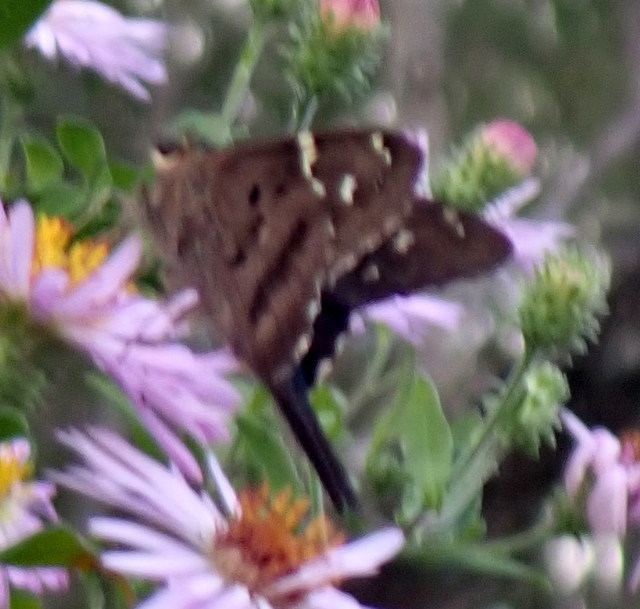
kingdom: Animalia
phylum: Arthropoda
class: Insecta
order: Lepidoptera
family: Hesperiidae
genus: Urbanus
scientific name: Urbanus proteus
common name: Long-tailed skipper
